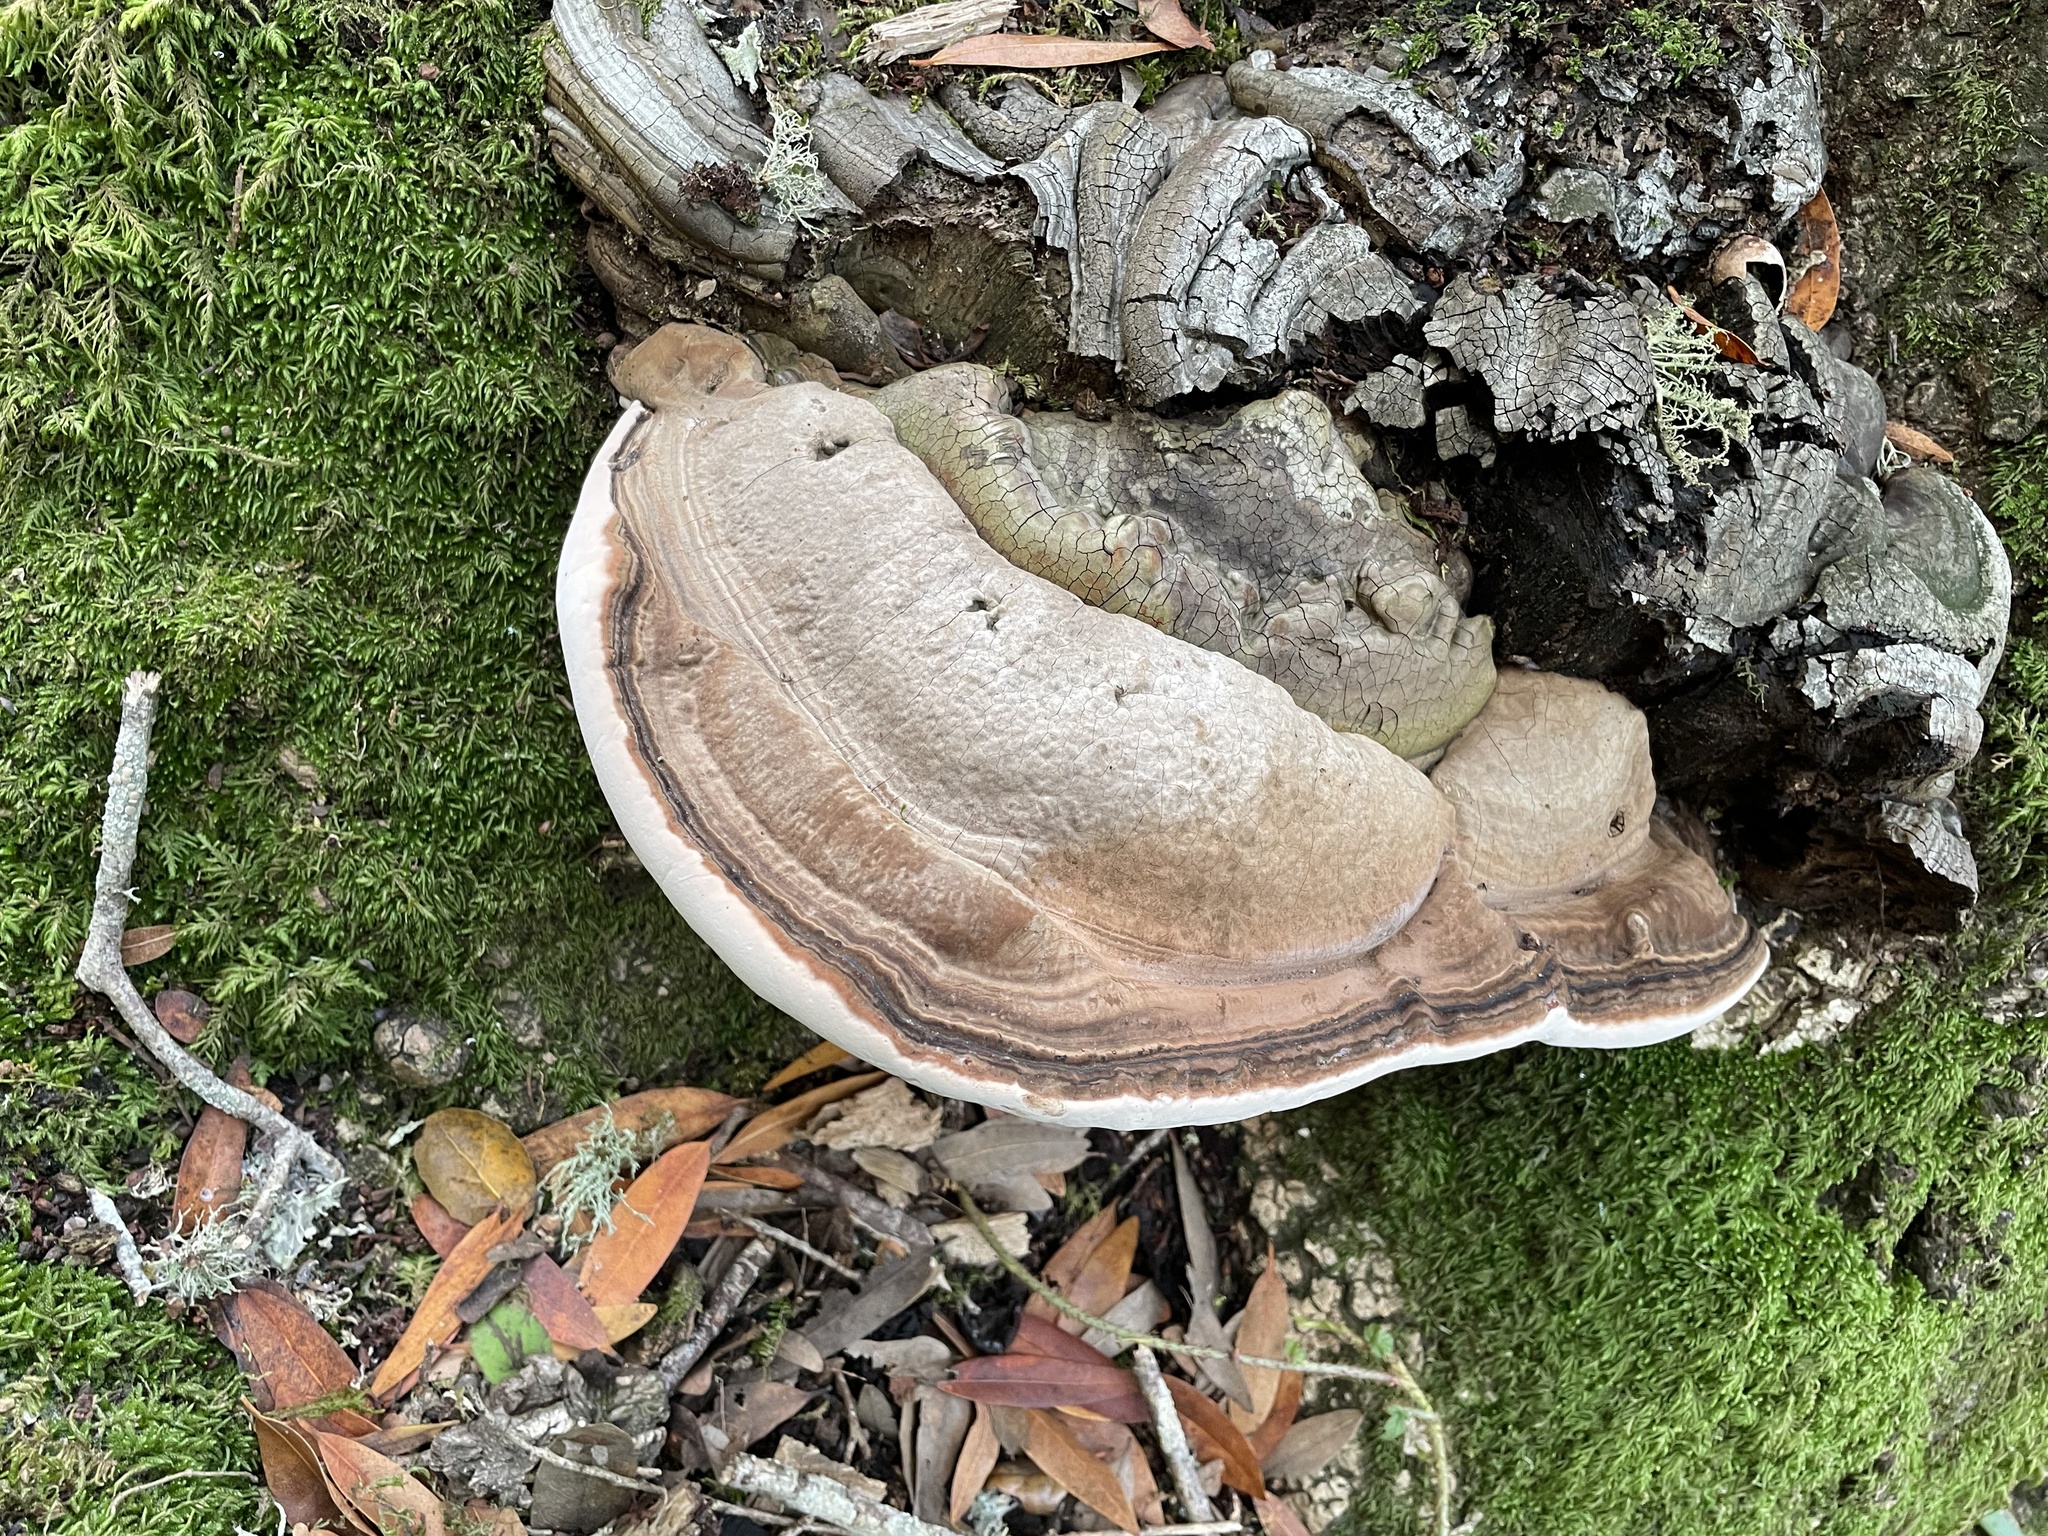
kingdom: Fungi
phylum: Basidiomycota
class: Agaricomycetes
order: Polyporales
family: Polyporaceae
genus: Ganoderma
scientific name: Ganoderma brownii
